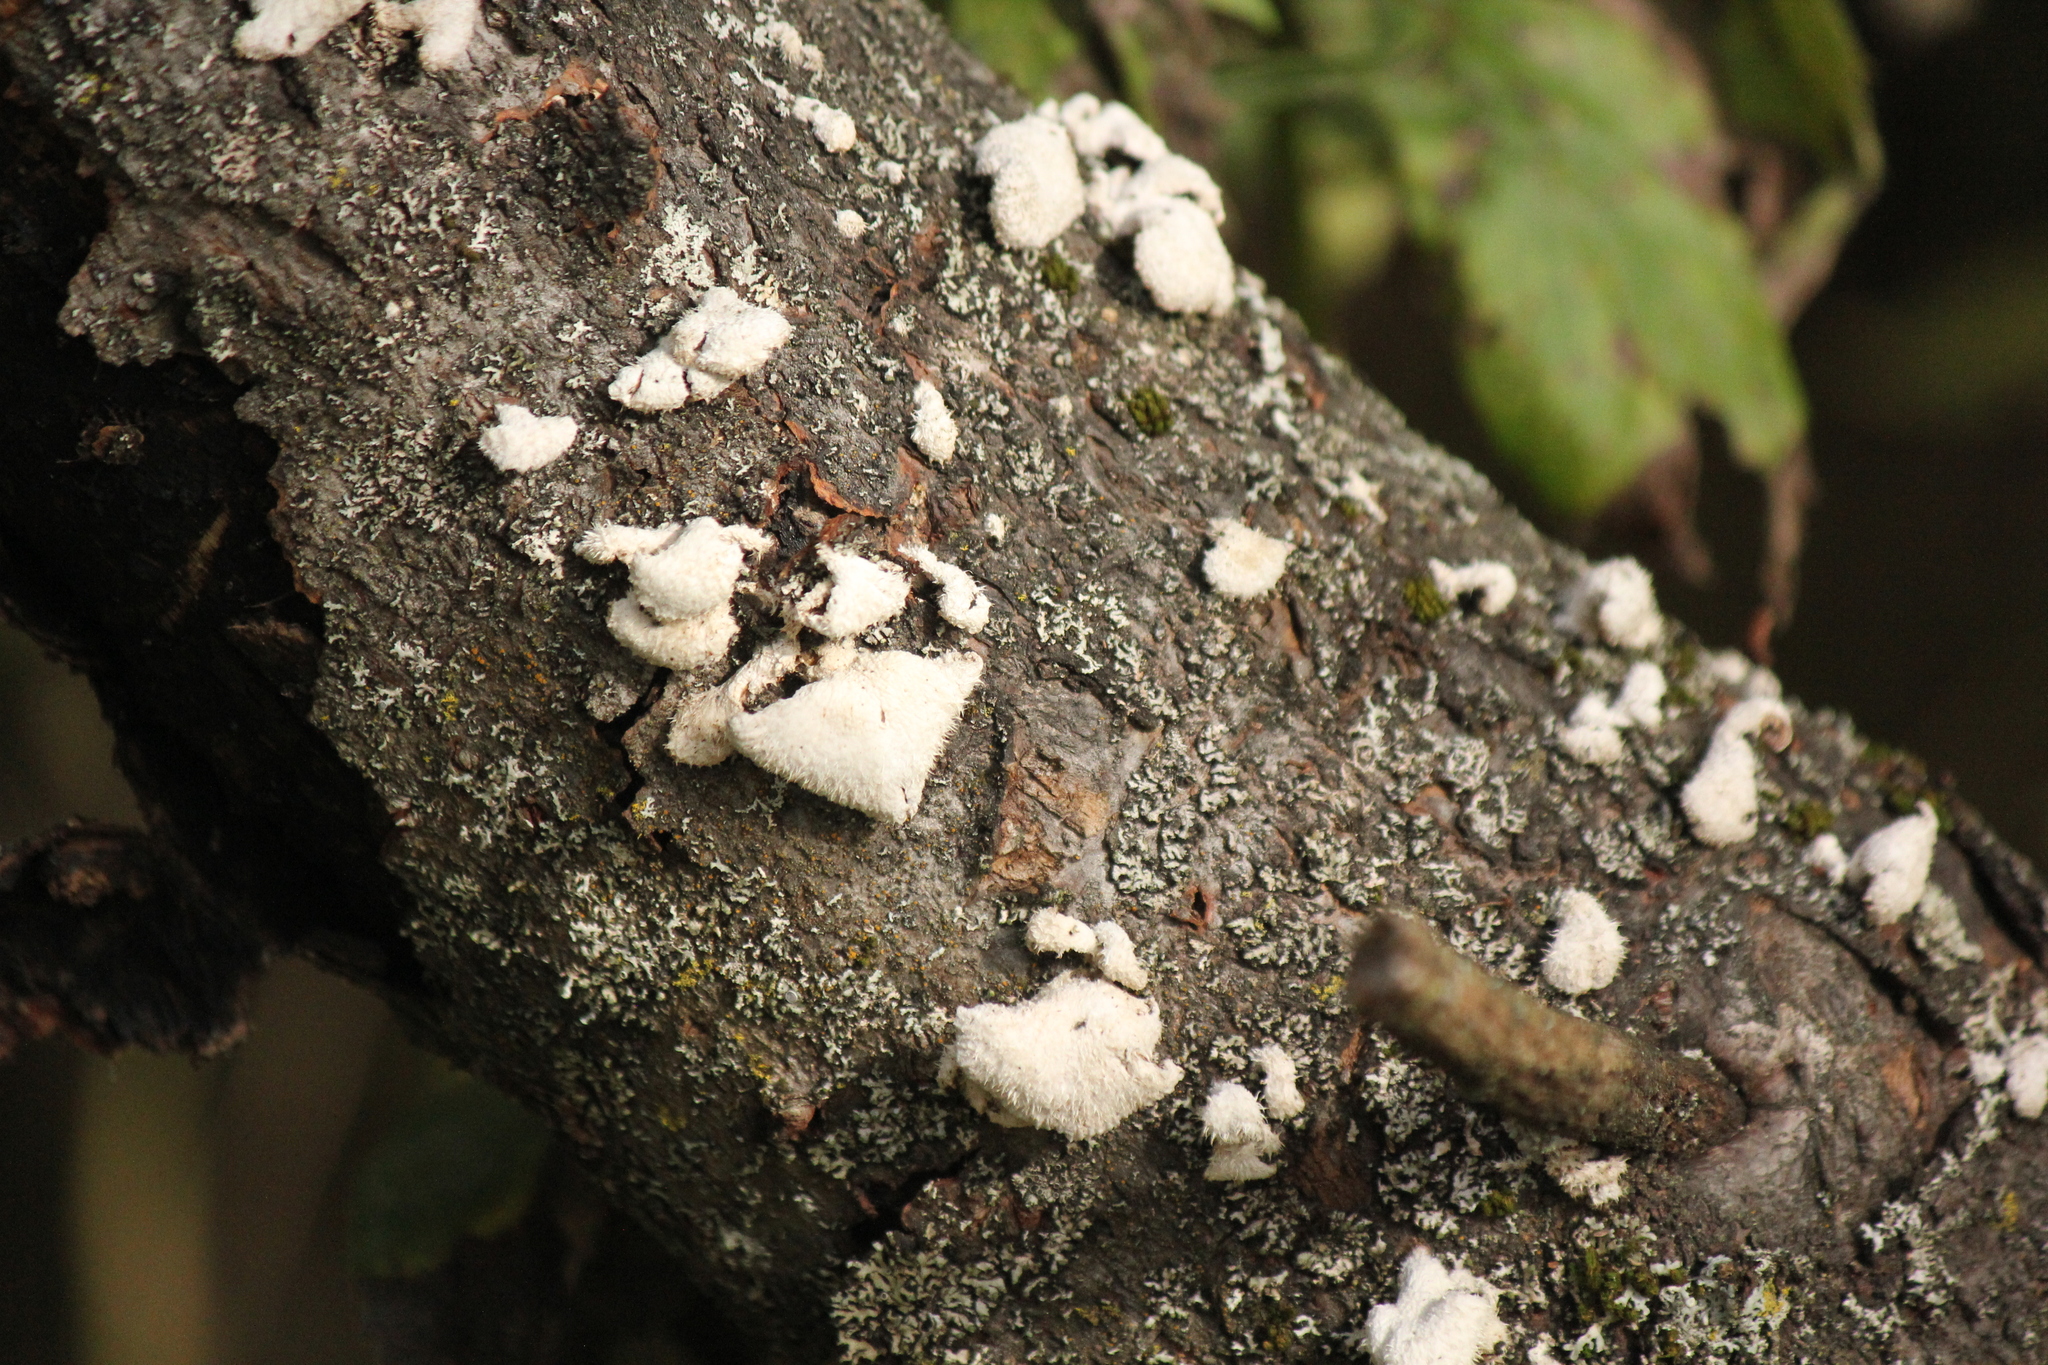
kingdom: Fungi
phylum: Basidiomycota
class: Agaricomycetes
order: Agaricales
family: Schizophyllaceae
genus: Schizophyllum
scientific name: Schizophyllum commune
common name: Common porecrust
